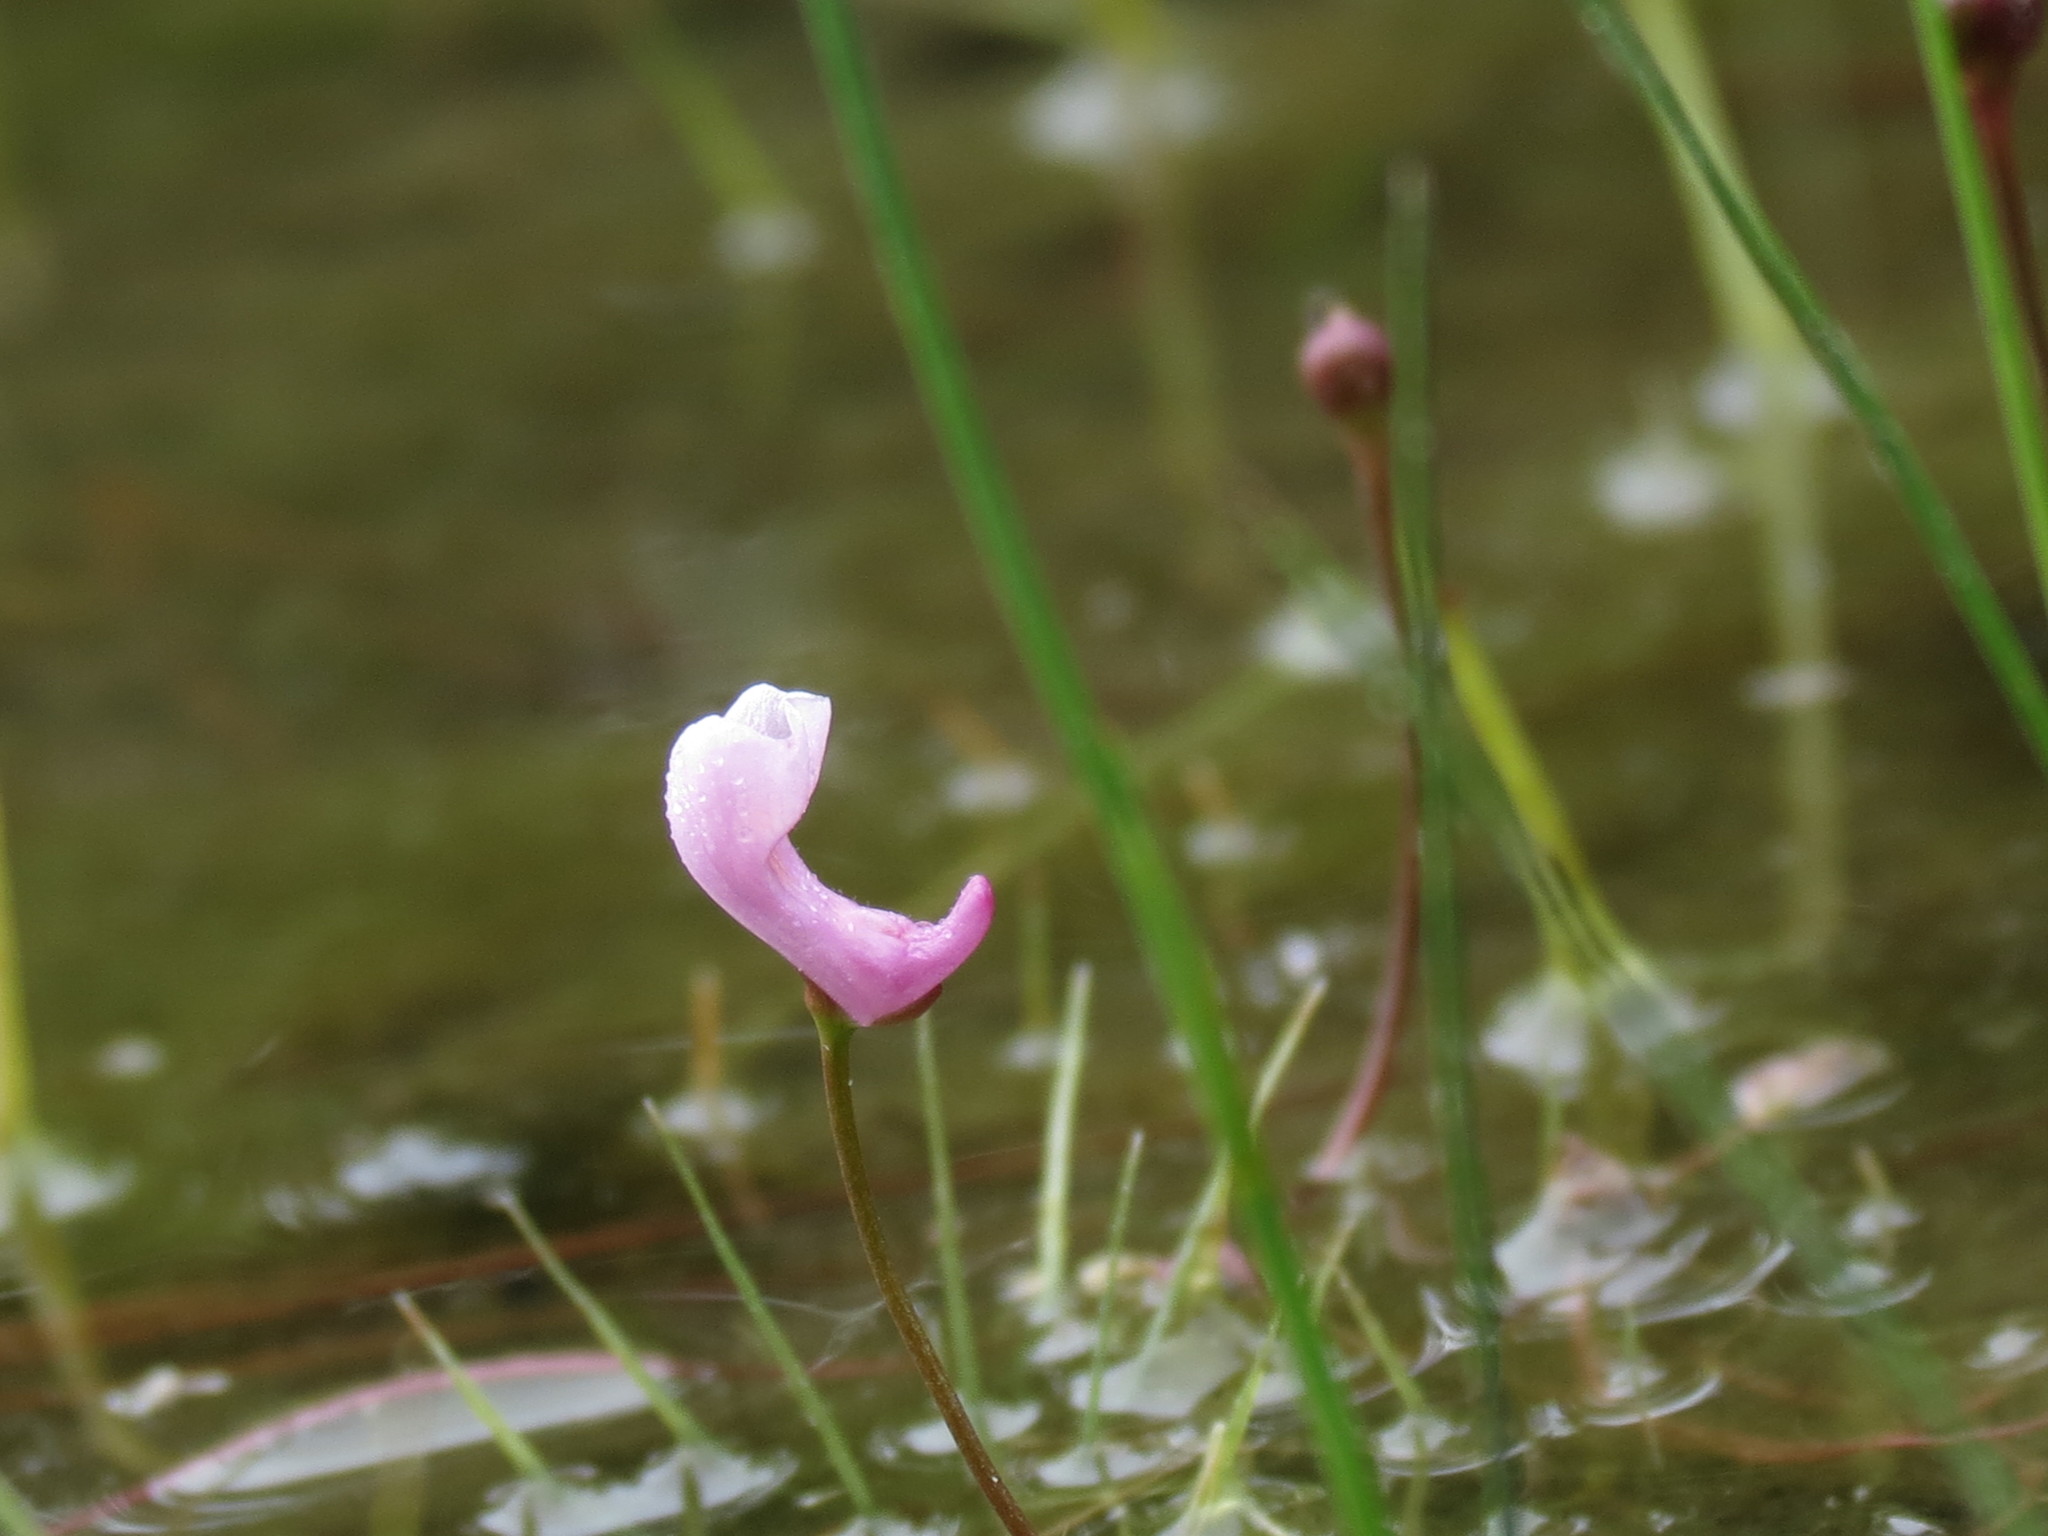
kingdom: Plantae
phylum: Tracheophyta
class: Magnoliopsida
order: Lamiales
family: Lentibulariaceae
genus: Utricularia
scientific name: Utricularia resupinata
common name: Northeastern bladderwort
